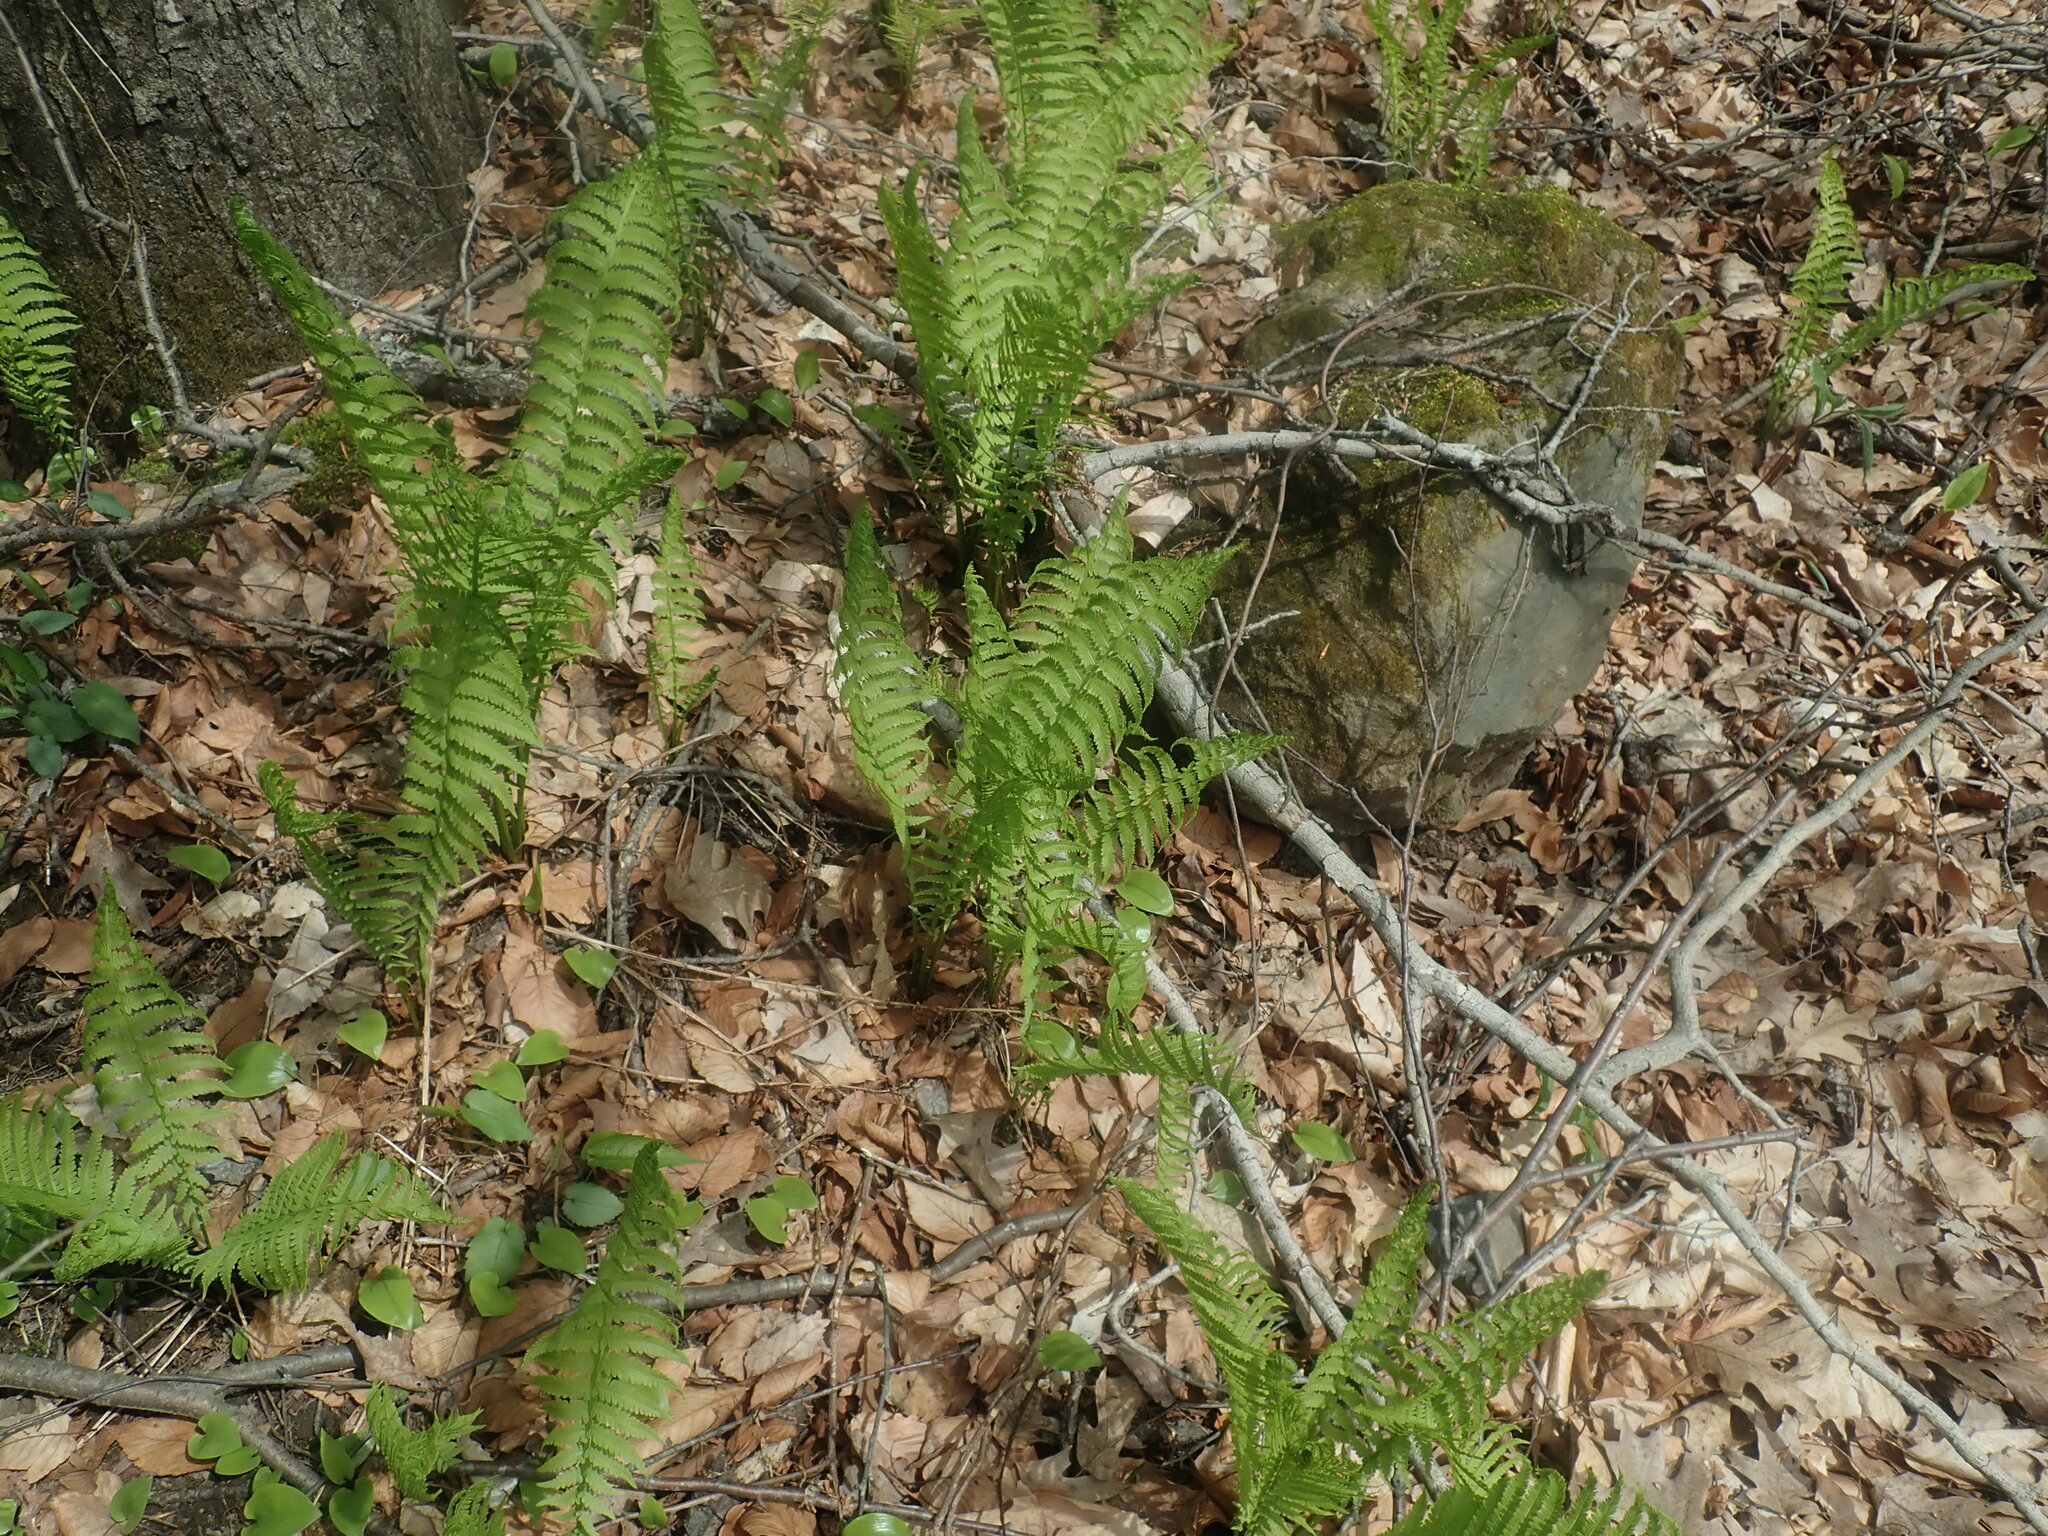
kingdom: Plantae
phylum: Tracheophyta
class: Polypodiopsida
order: Polypodiales
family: Onocleaceae
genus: Matteuccia
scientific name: Matteuccia struthiopteris
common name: Ostrich fern
